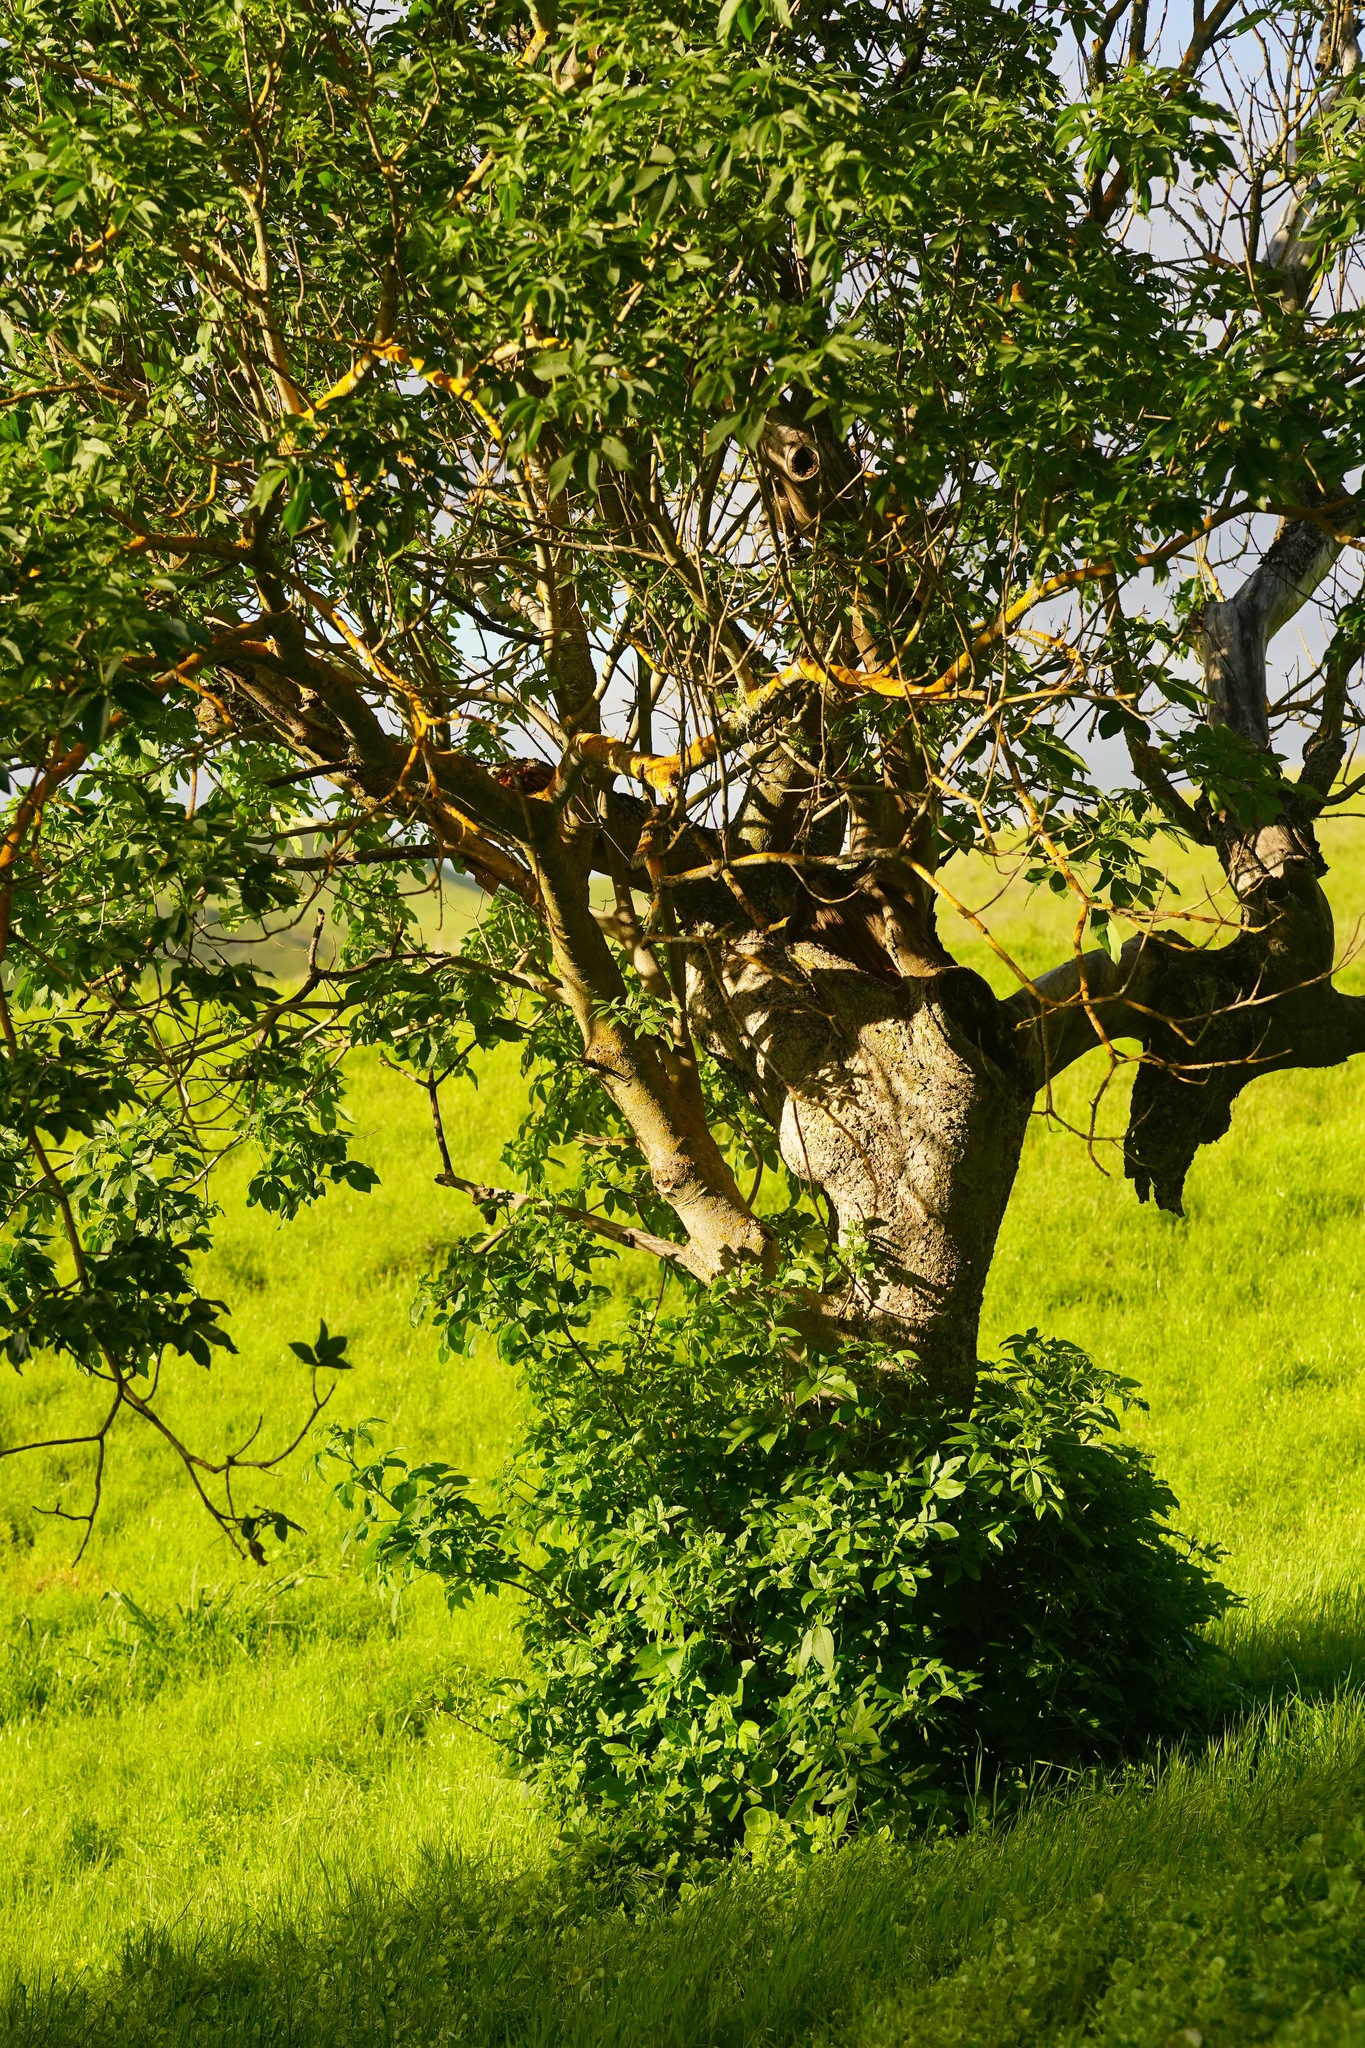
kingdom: Plantae
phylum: Tracheophyta
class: Magnoliopsida
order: Sapindales
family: Sapindaceae
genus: Aesculus
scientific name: Aesculus californica
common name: California buckeye
